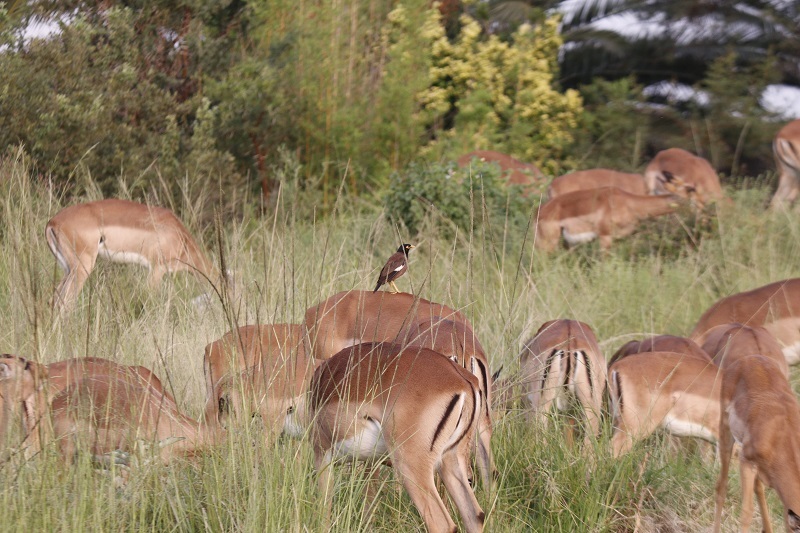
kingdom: Animalia
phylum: Chordata
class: Aves
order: Passeriformes
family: Sturnidae
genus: Acridotheres
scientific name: Acridotheres tristis
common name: Common myna
